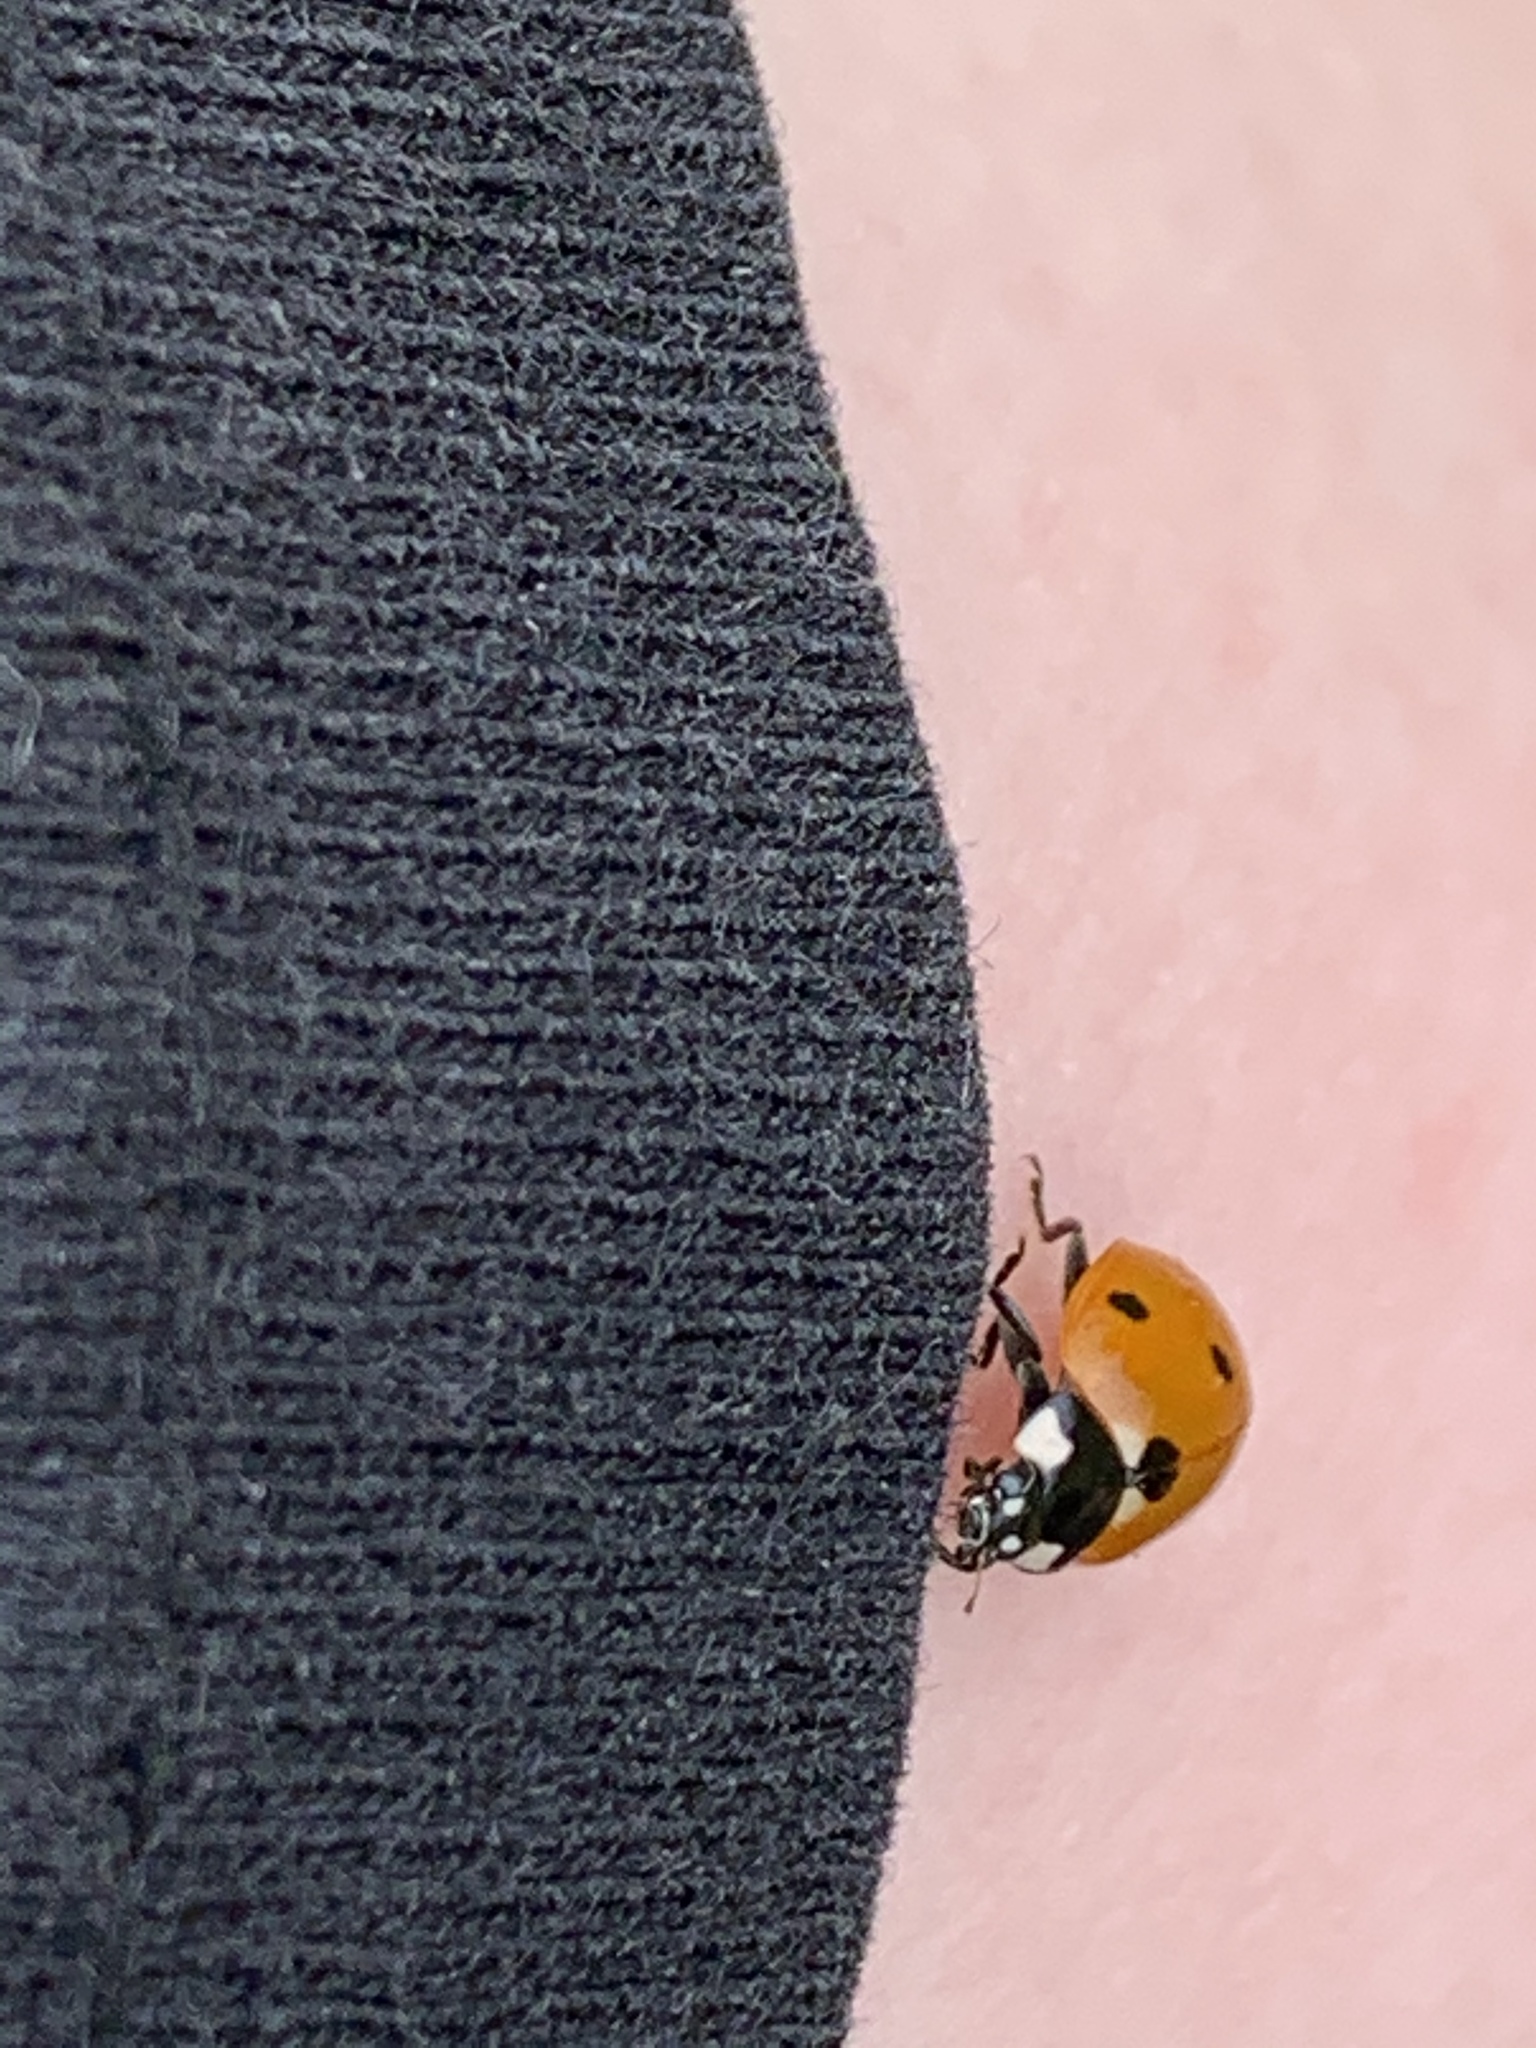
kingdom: Animalia
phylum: Arthropoda
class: Insecta
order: Coleoptera
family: Coccinellidae
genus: Coccinella
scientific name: Coccinella septempunctata
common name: Sevenspotted lady beetle
